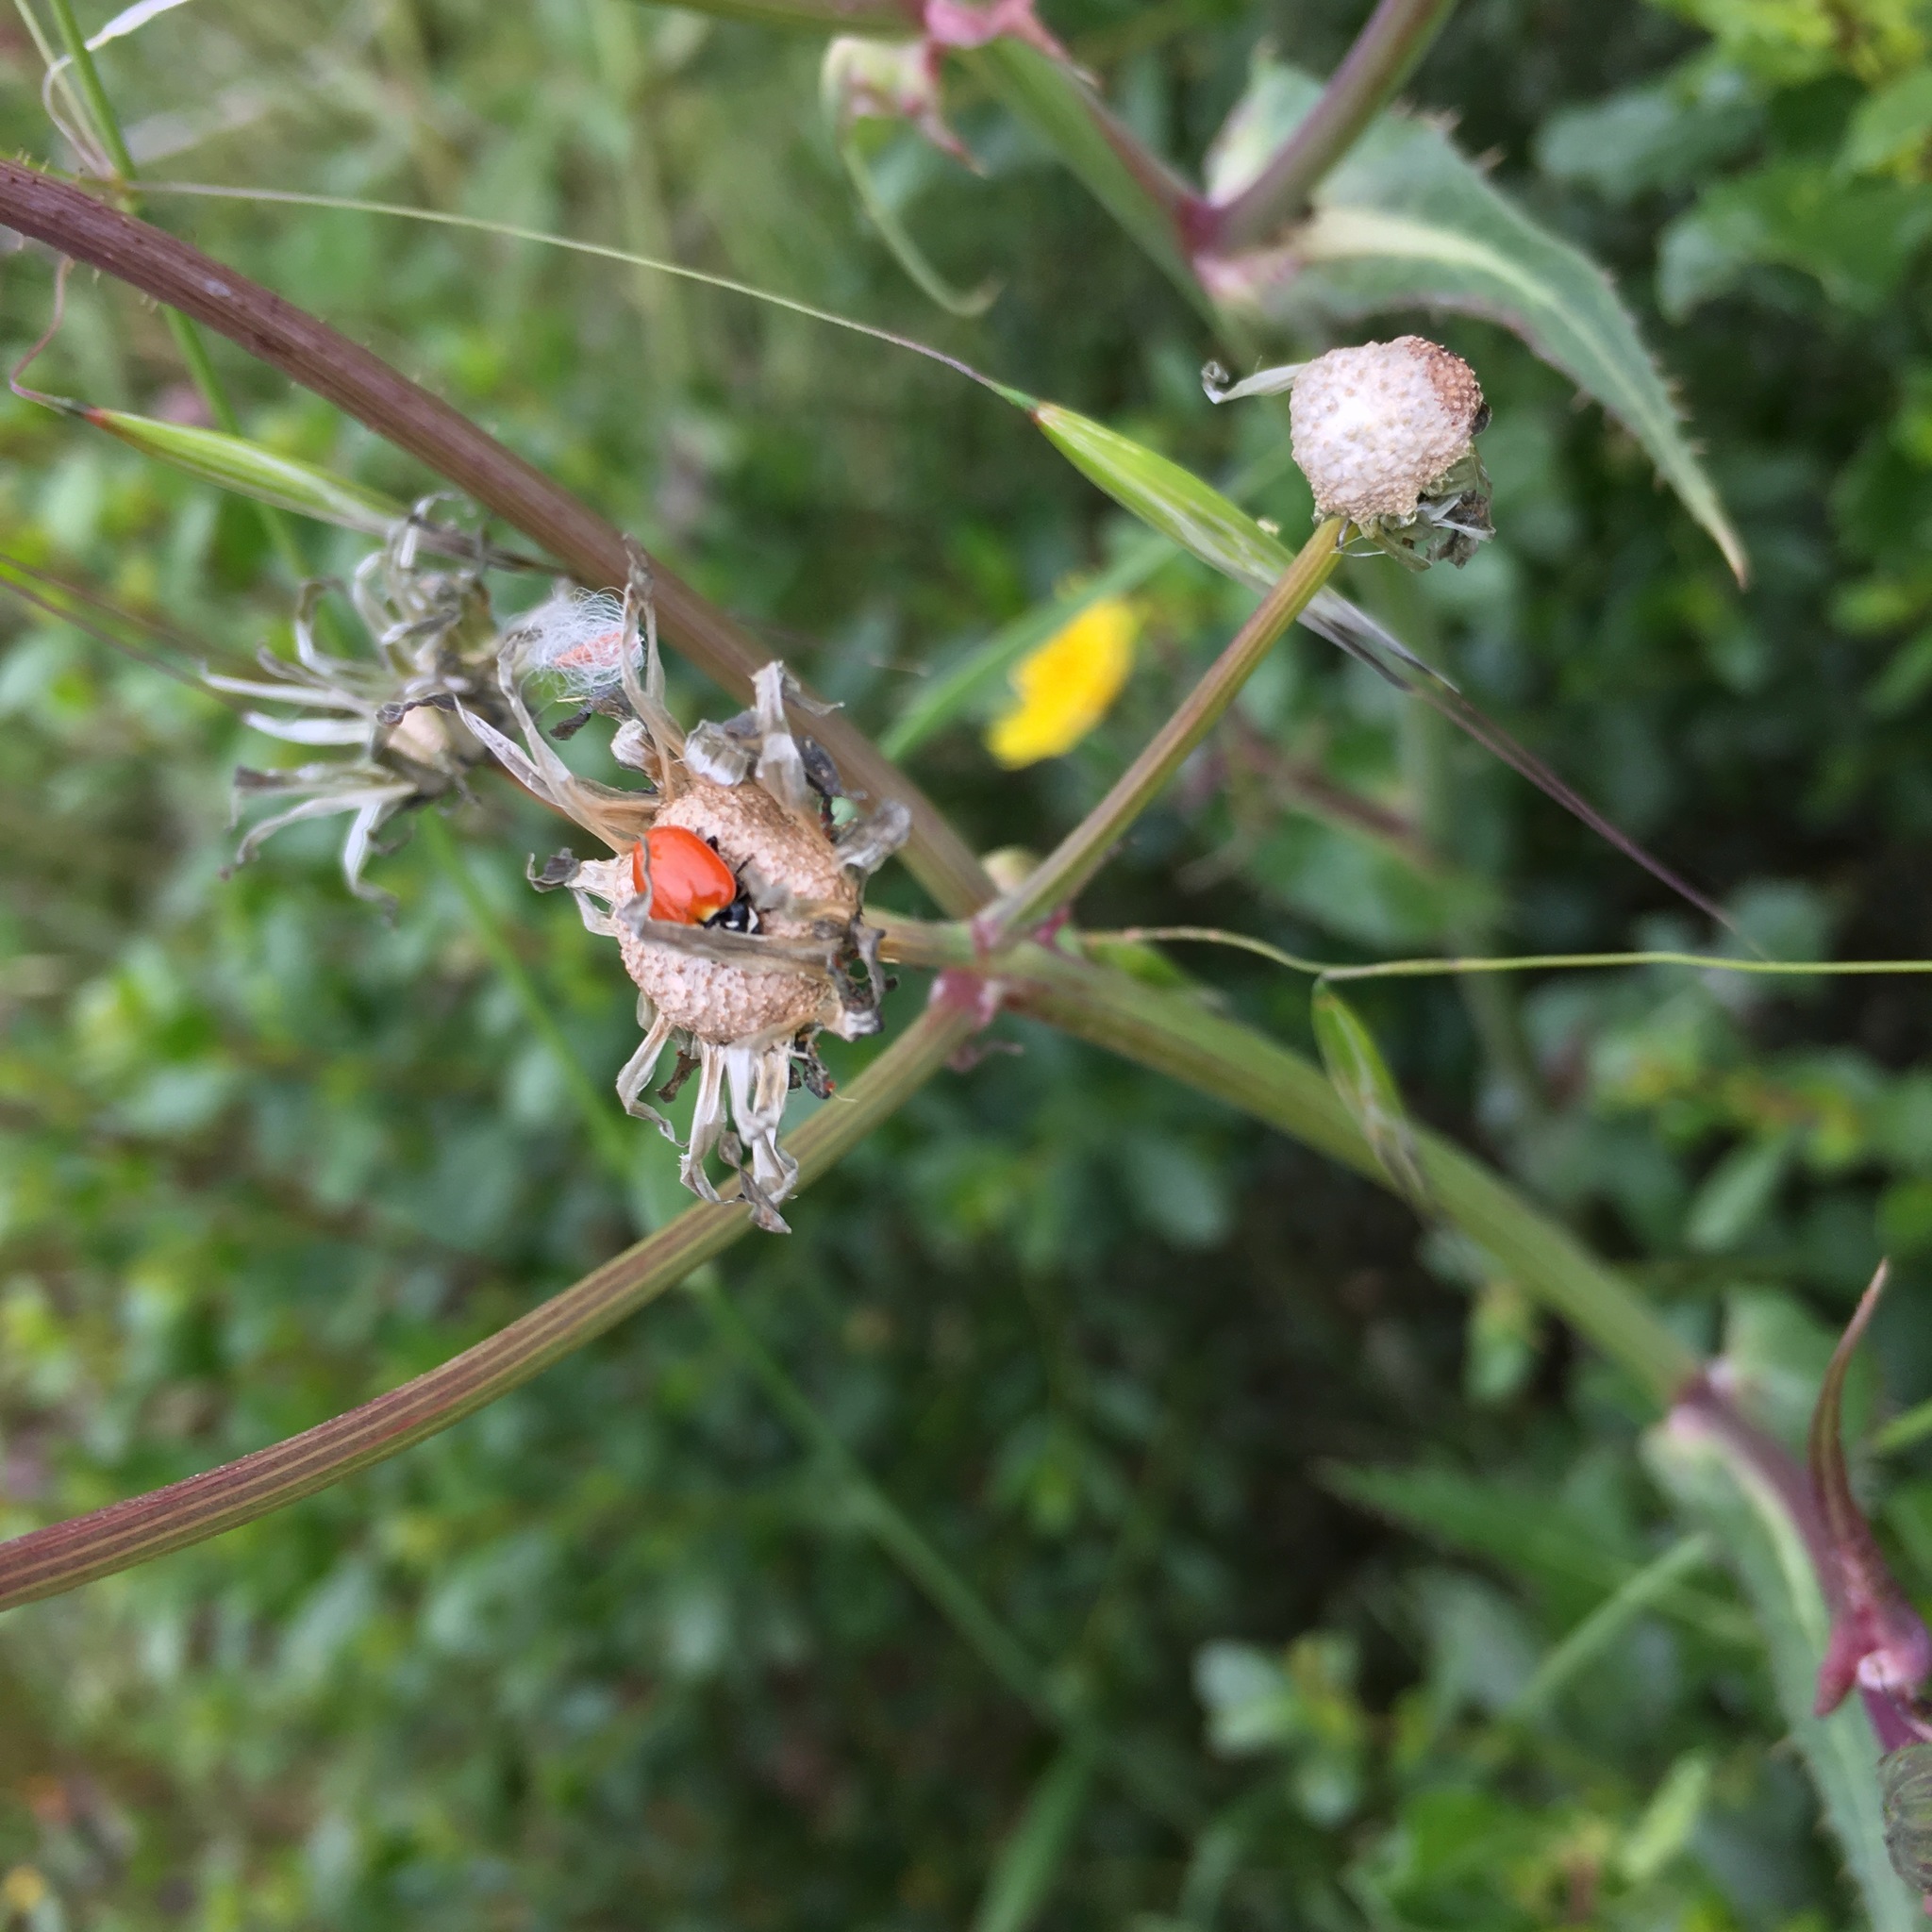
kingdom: Animalia
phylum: Arthropoda
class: Insecta
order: Coleoptera
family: Coccinellidae
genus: Hippodamia
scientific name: Hippodamia quinquesignata
